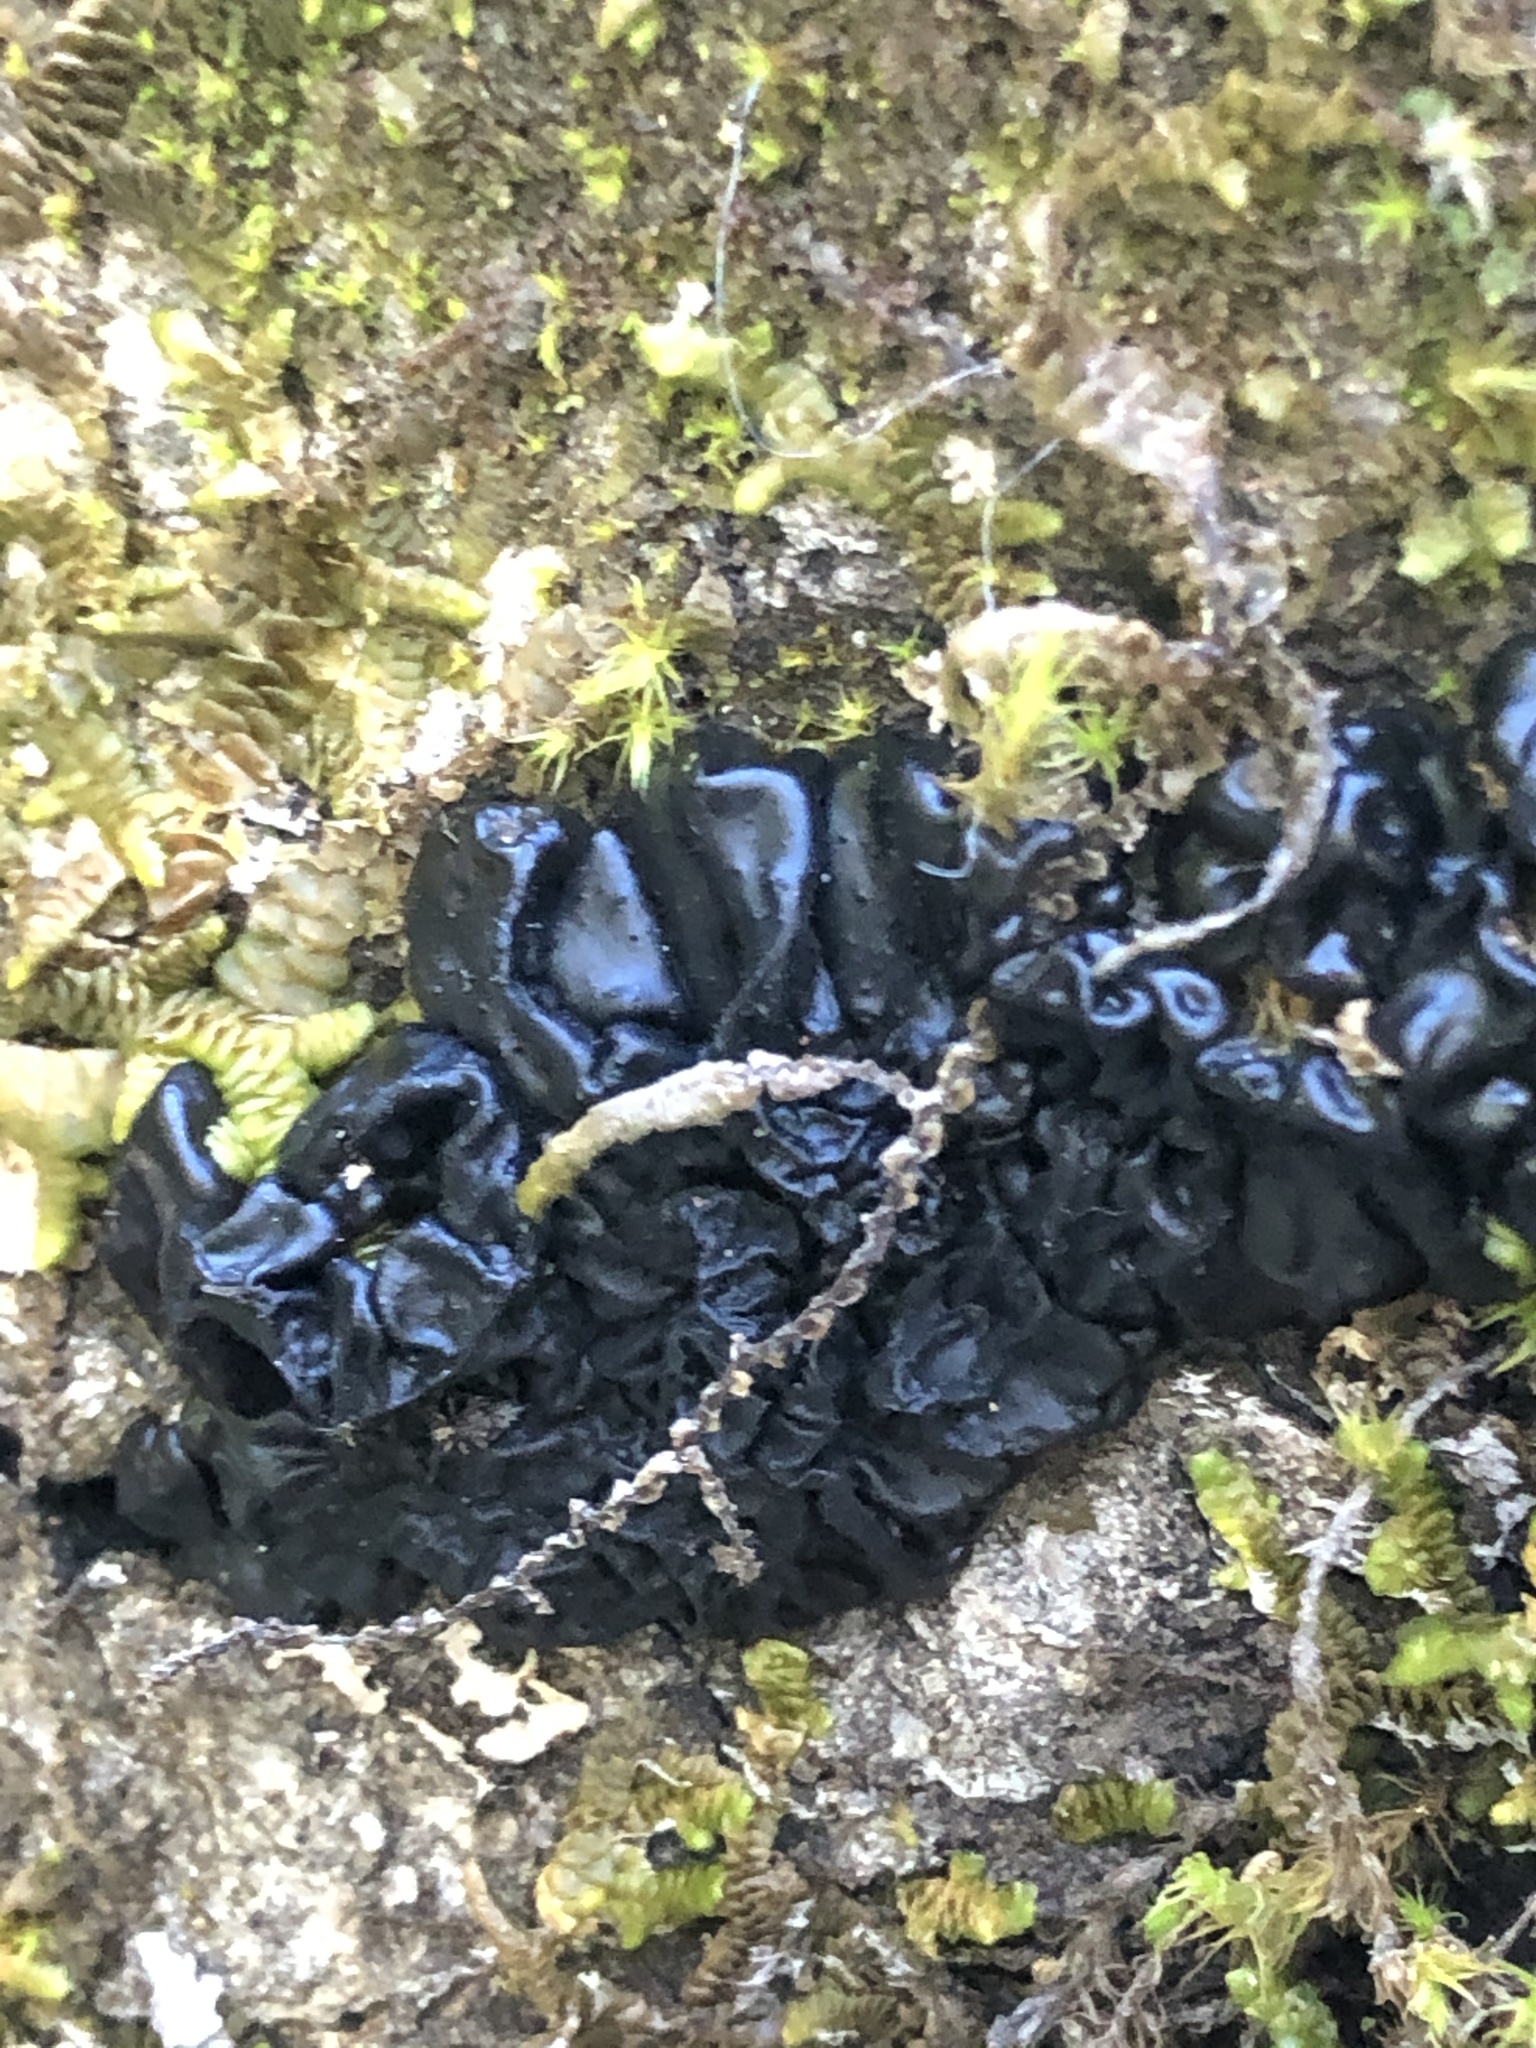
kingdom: Fungi
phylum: Basidiomycota
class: Agaricomycetes
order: Auriculariales
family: Auriculariaceae
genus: Exidia
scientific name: Exidia glandulosa
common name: Witches' butter
